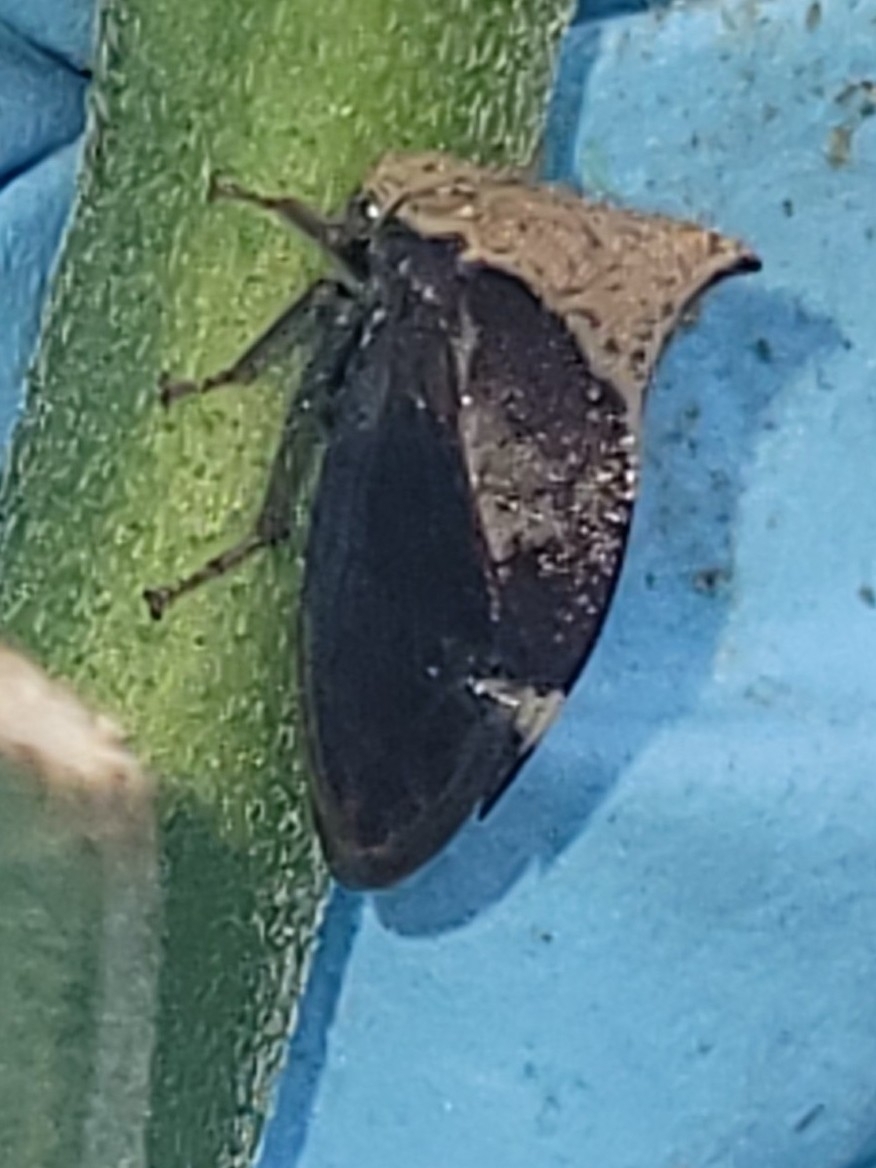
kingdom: Animalia
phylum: Arthropoda
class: Insecta
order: Hemiptera
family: Membracidae
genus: Stictocephala
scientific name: Stictocephala diceros
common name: Two-horned treehopper
